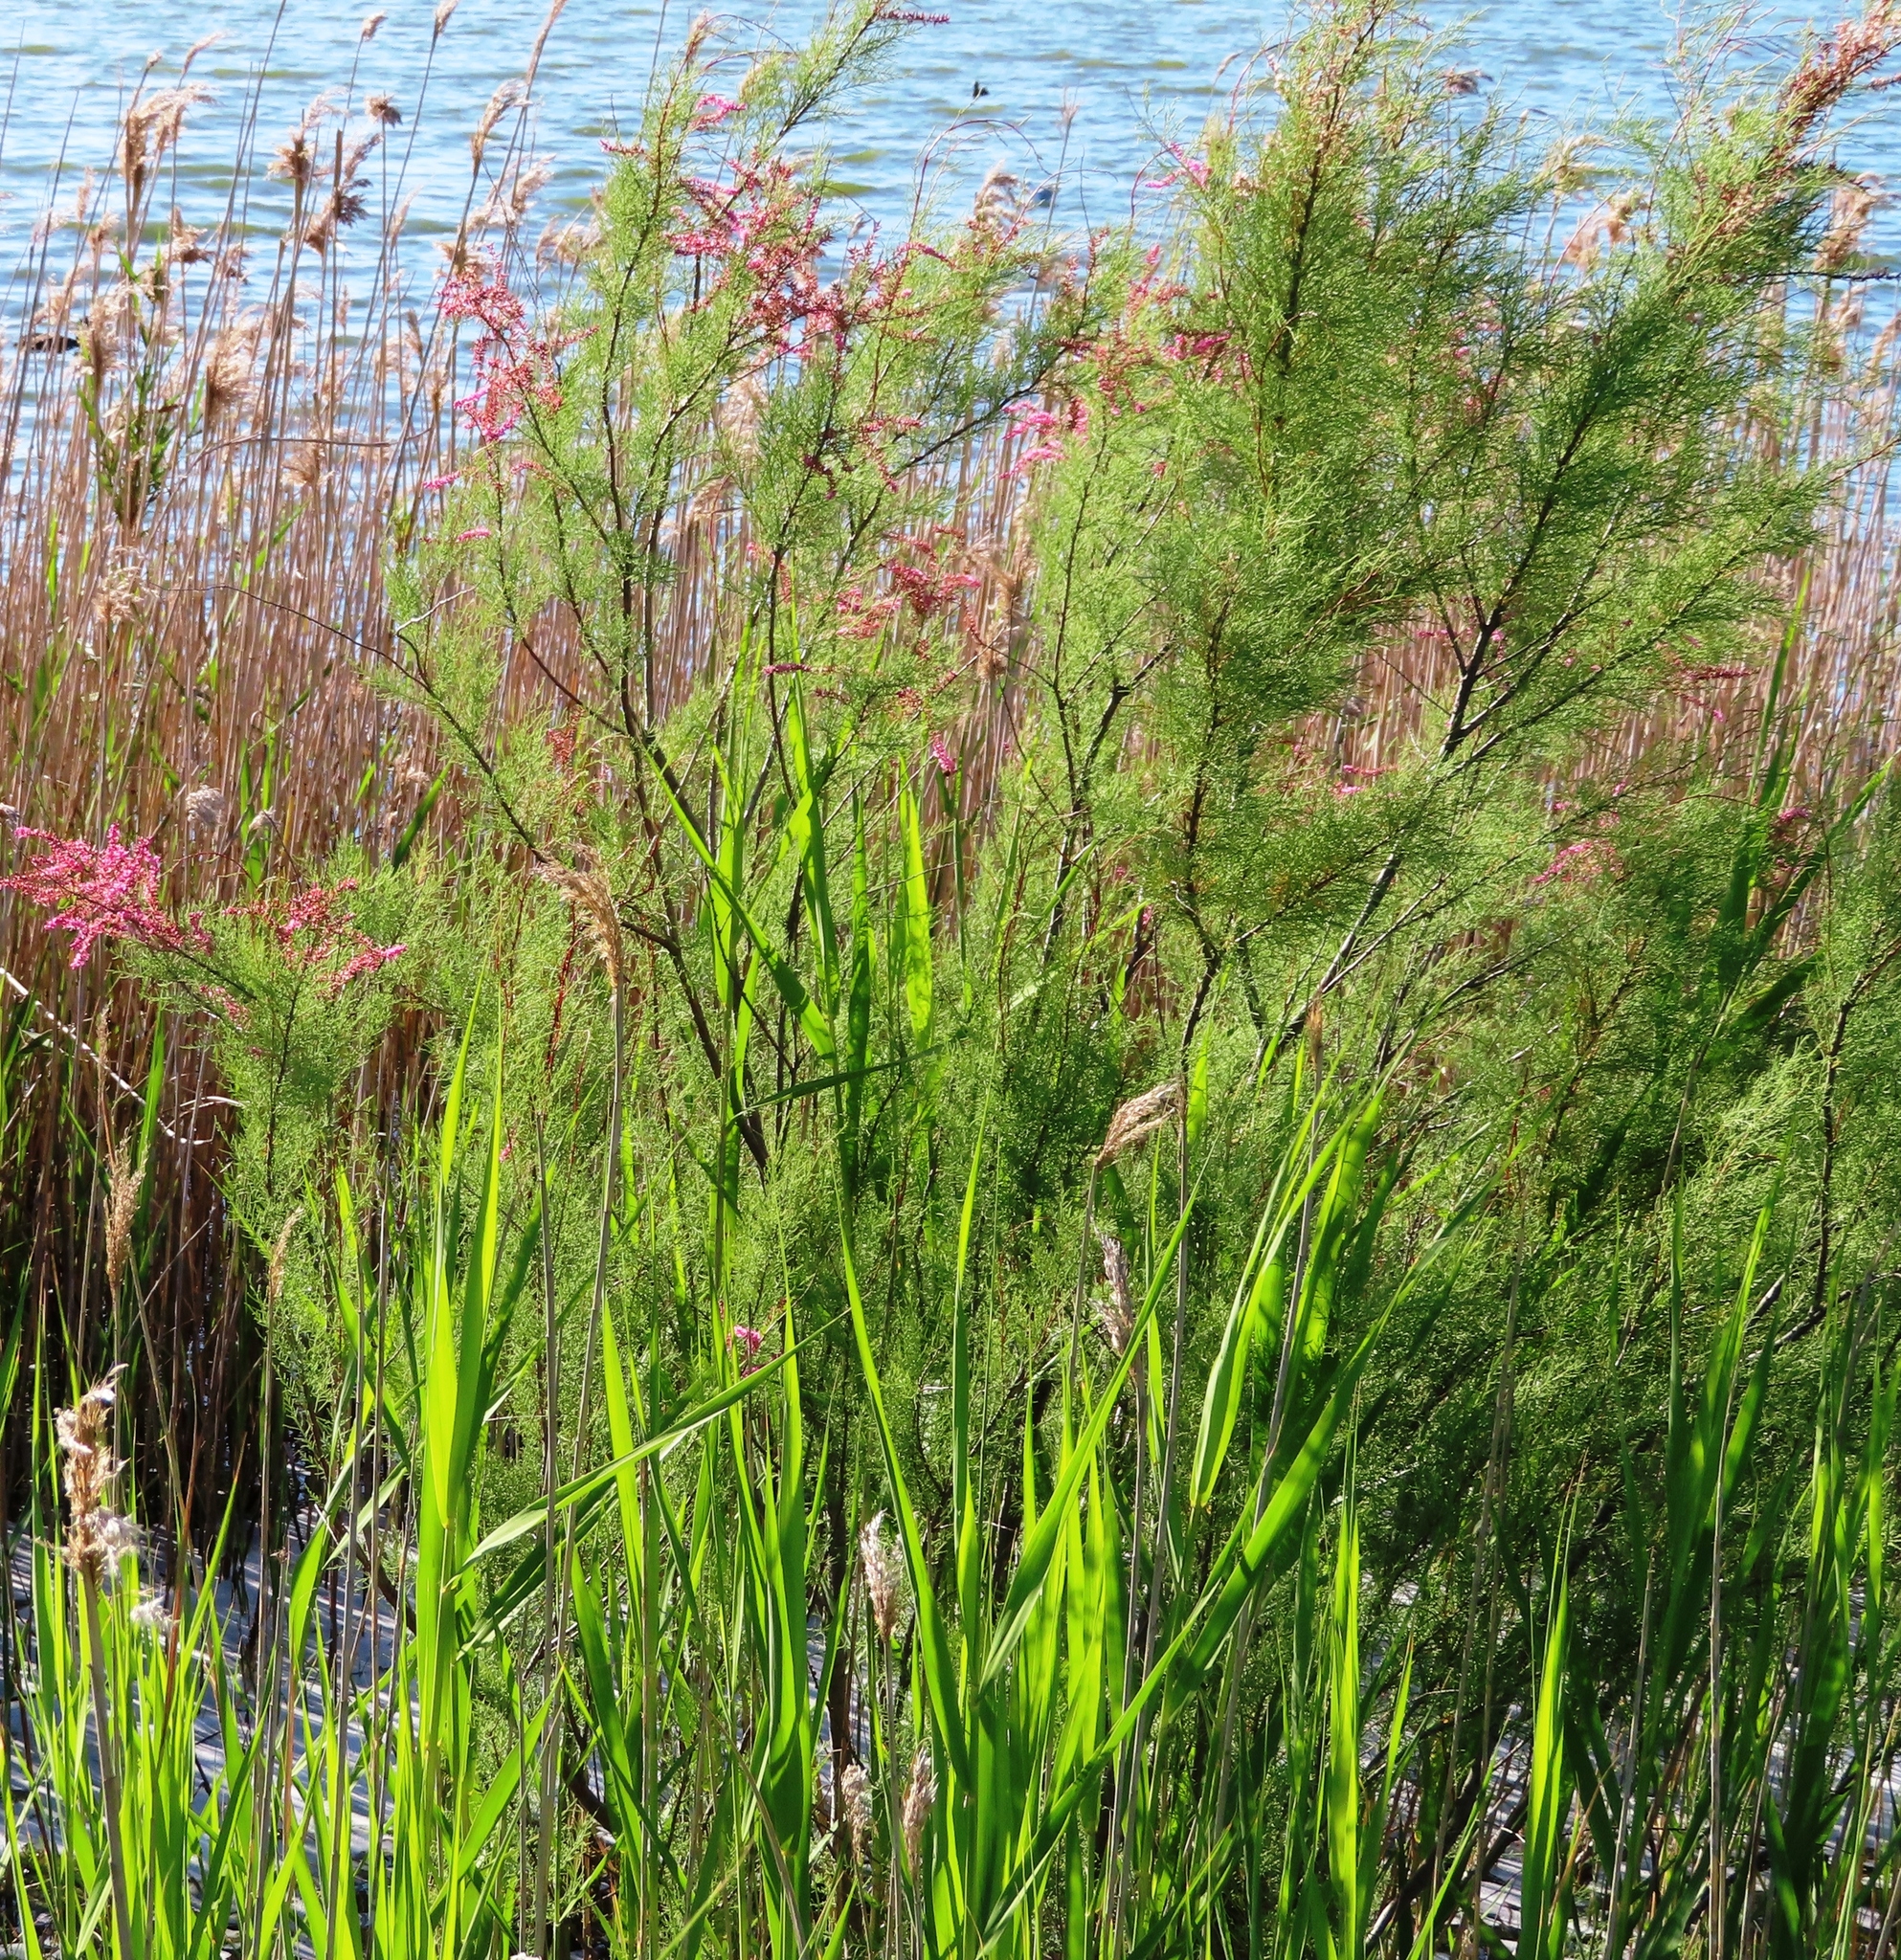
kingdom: Plantae
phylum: Tracheophyta
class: Magnoliopsida
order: Caryophyllales
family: Tamaricaceae
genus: Tamarix
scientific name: Tamarix ramosissima
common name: Pink tamarisk
